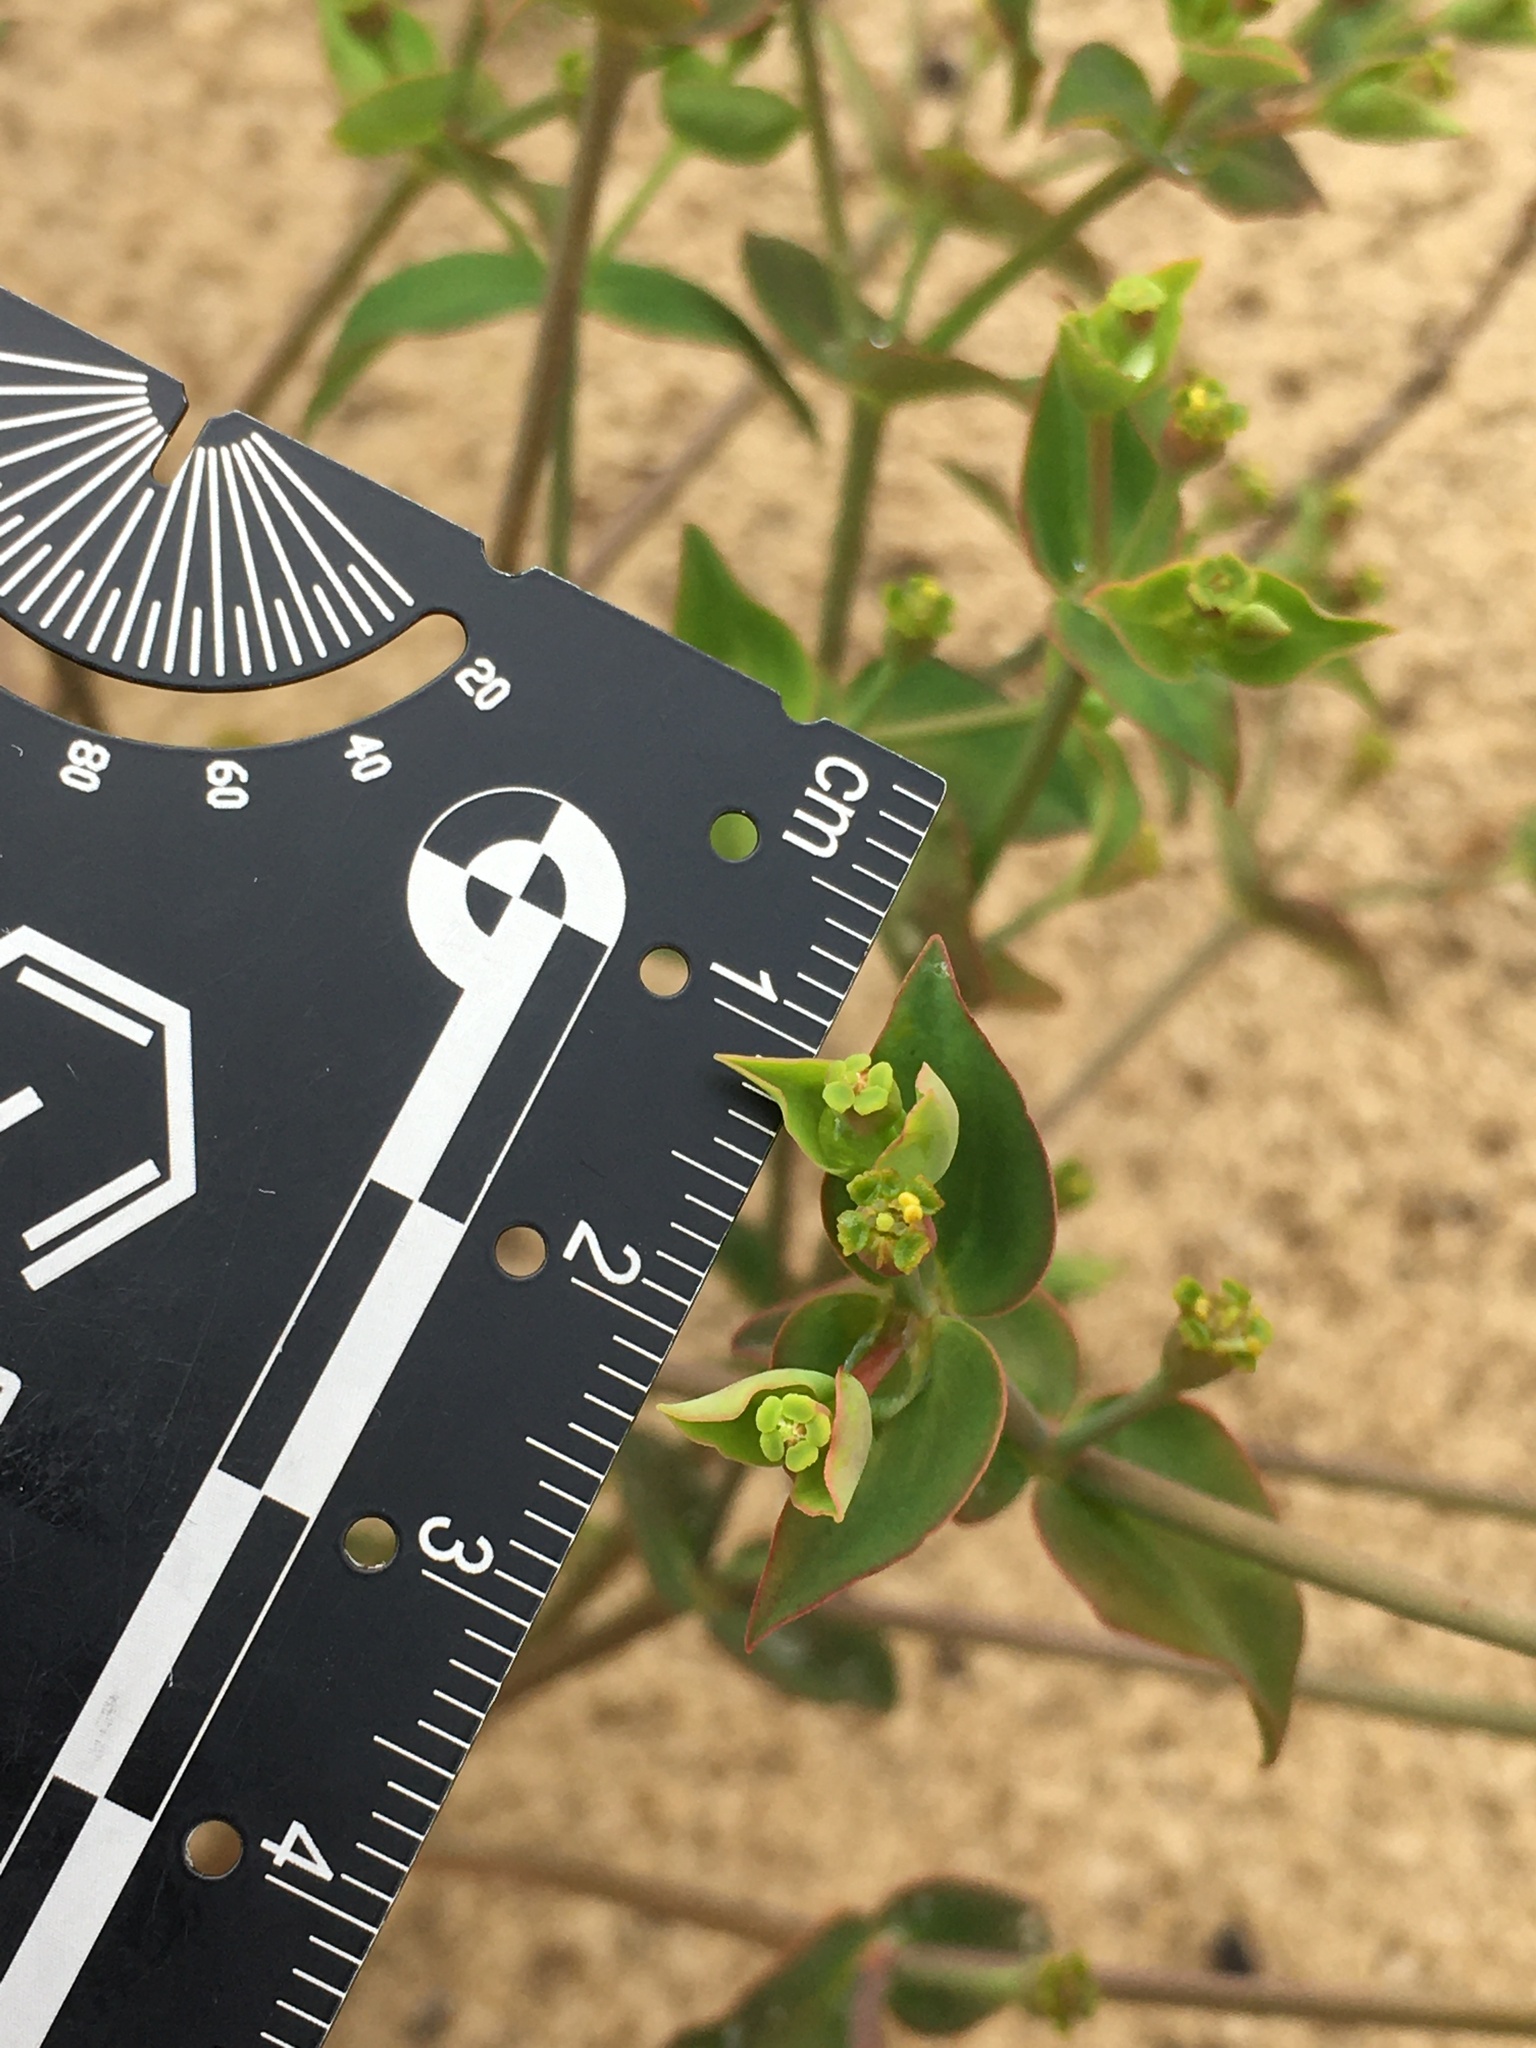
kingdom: Plantae
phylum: Tracheophyta
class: Magnoliopsida
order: Malpighiales
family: Euphorbiaceae
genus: Euphorbia
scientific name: Euphorbia floridana
